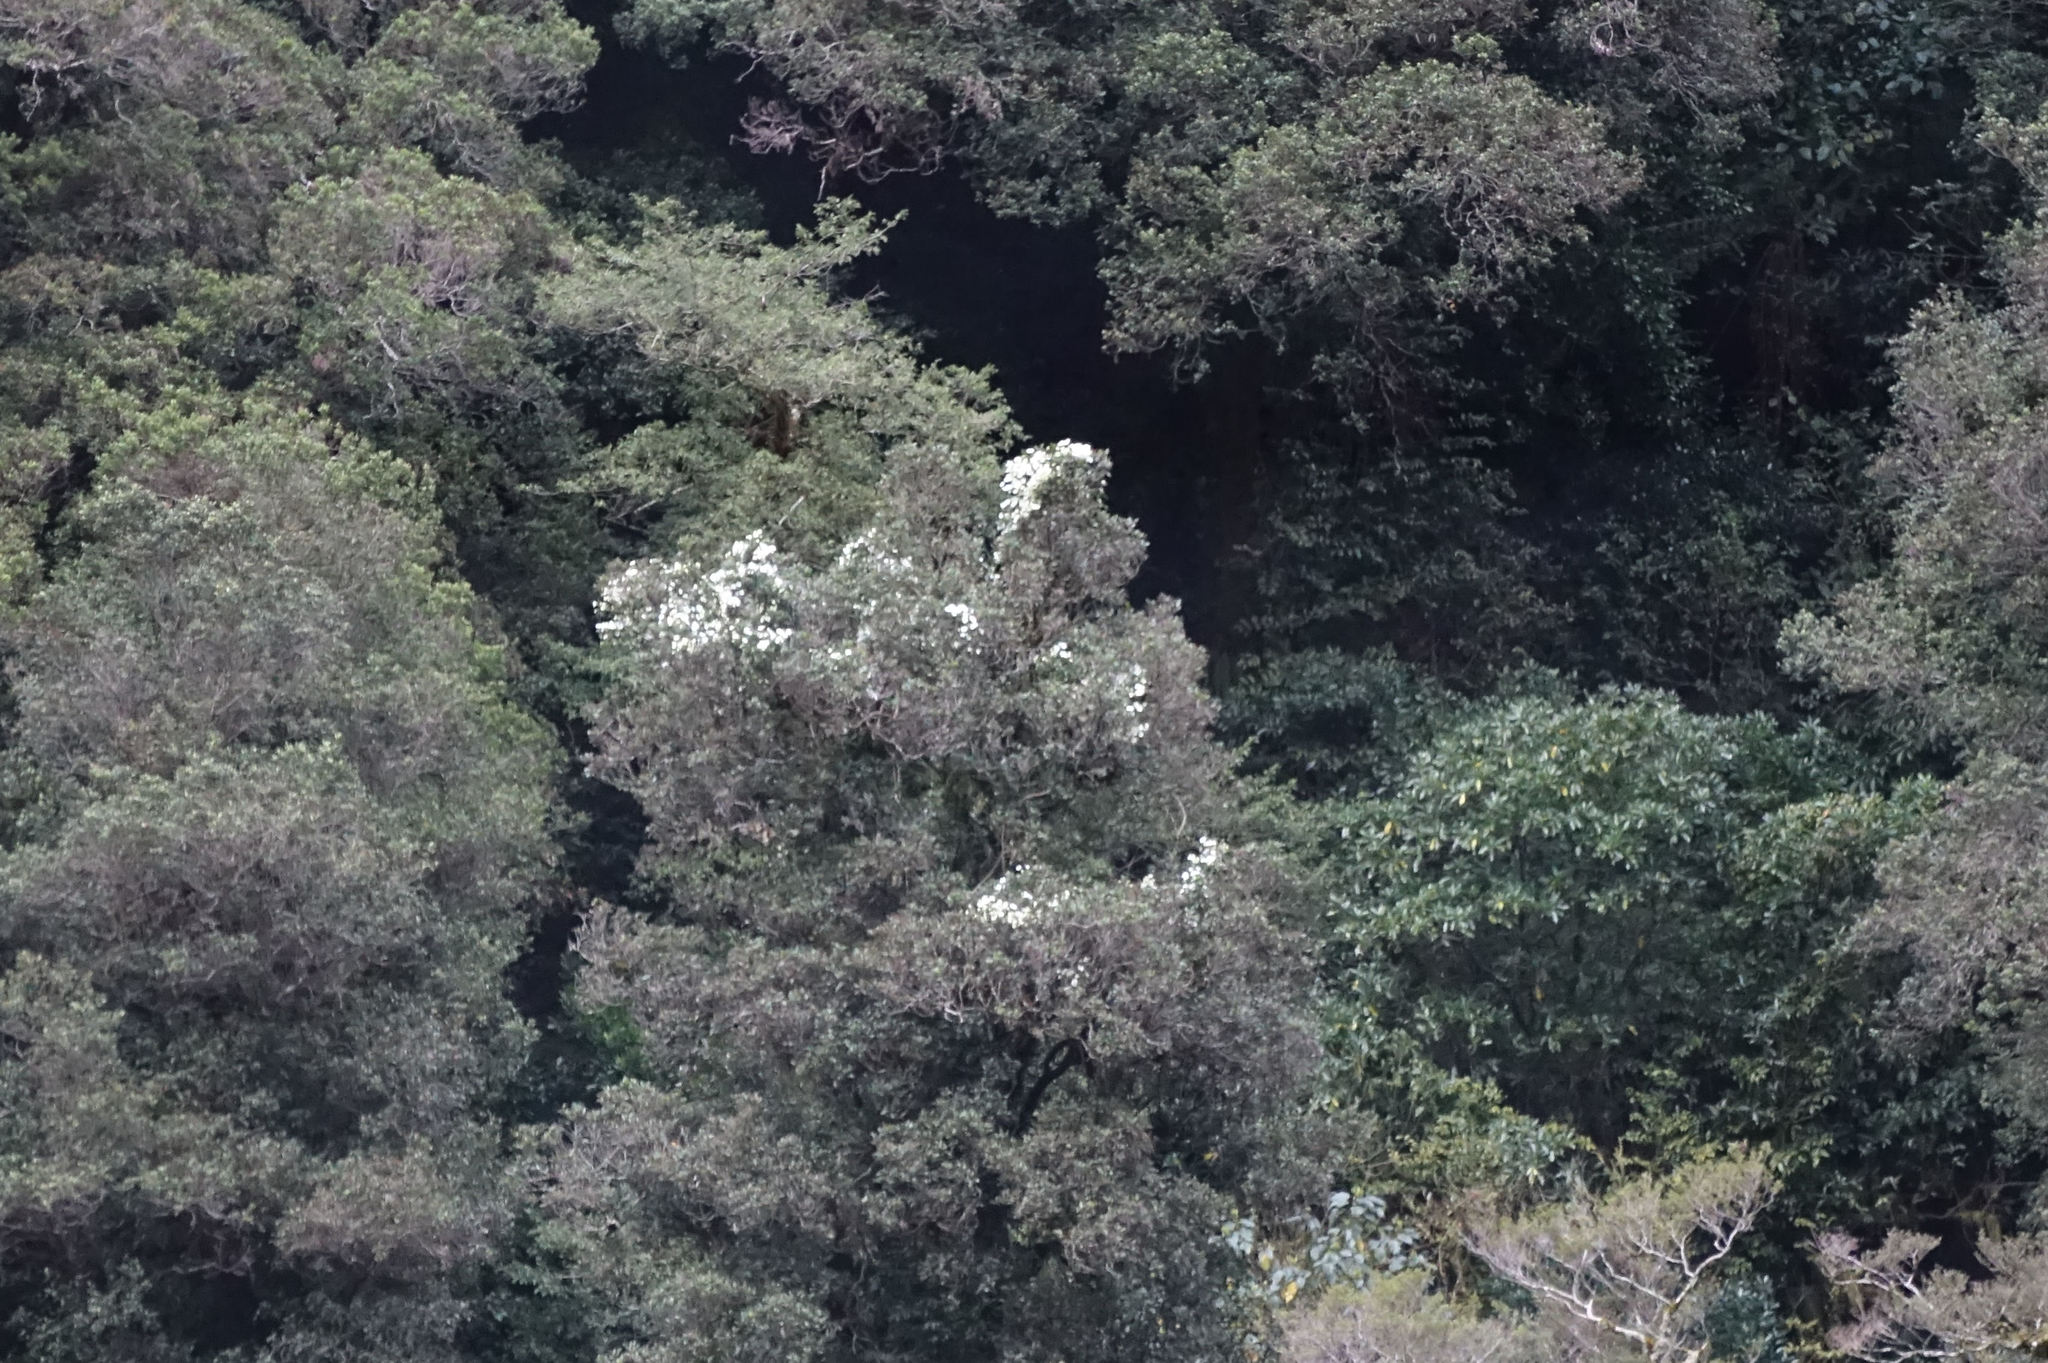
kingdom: Plantae
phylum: Tracheophyta
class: Magnoliopsida
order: Ranunculales
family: Ranunculaceae
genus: Clematis
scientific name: Clematis paniculata
